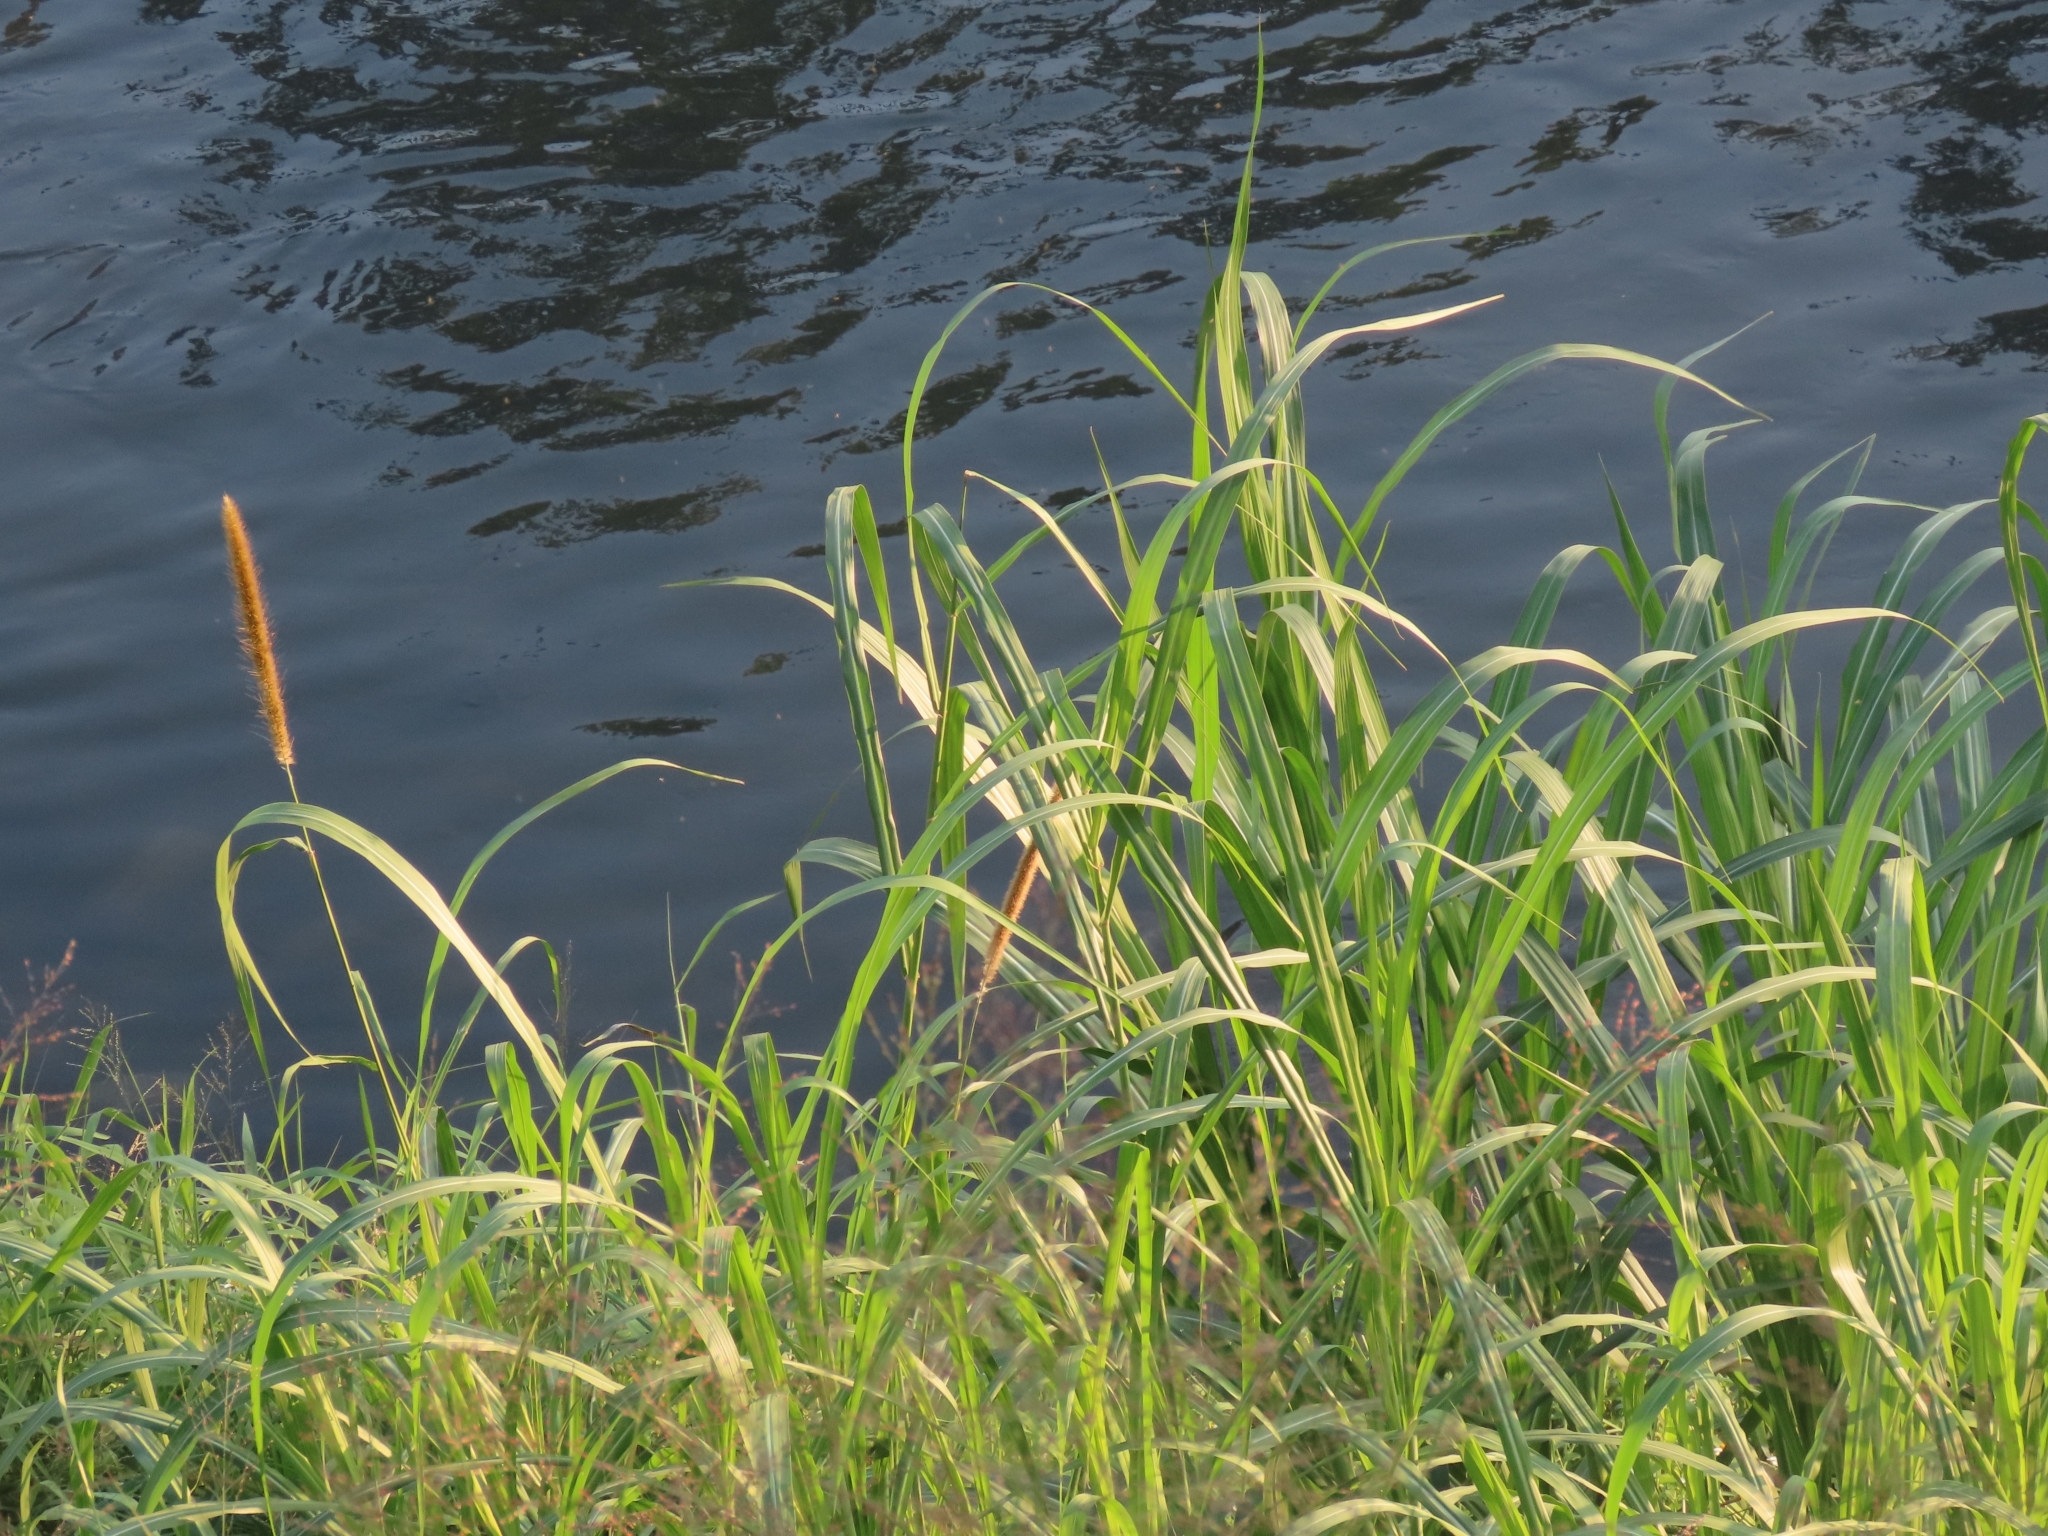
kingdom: Plantae
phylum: Tracheophyta
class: Liliopsida
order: Poales
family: Poaceae
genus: Cenchrus
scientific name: Cenchrus purpureus
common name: Elephant grass
